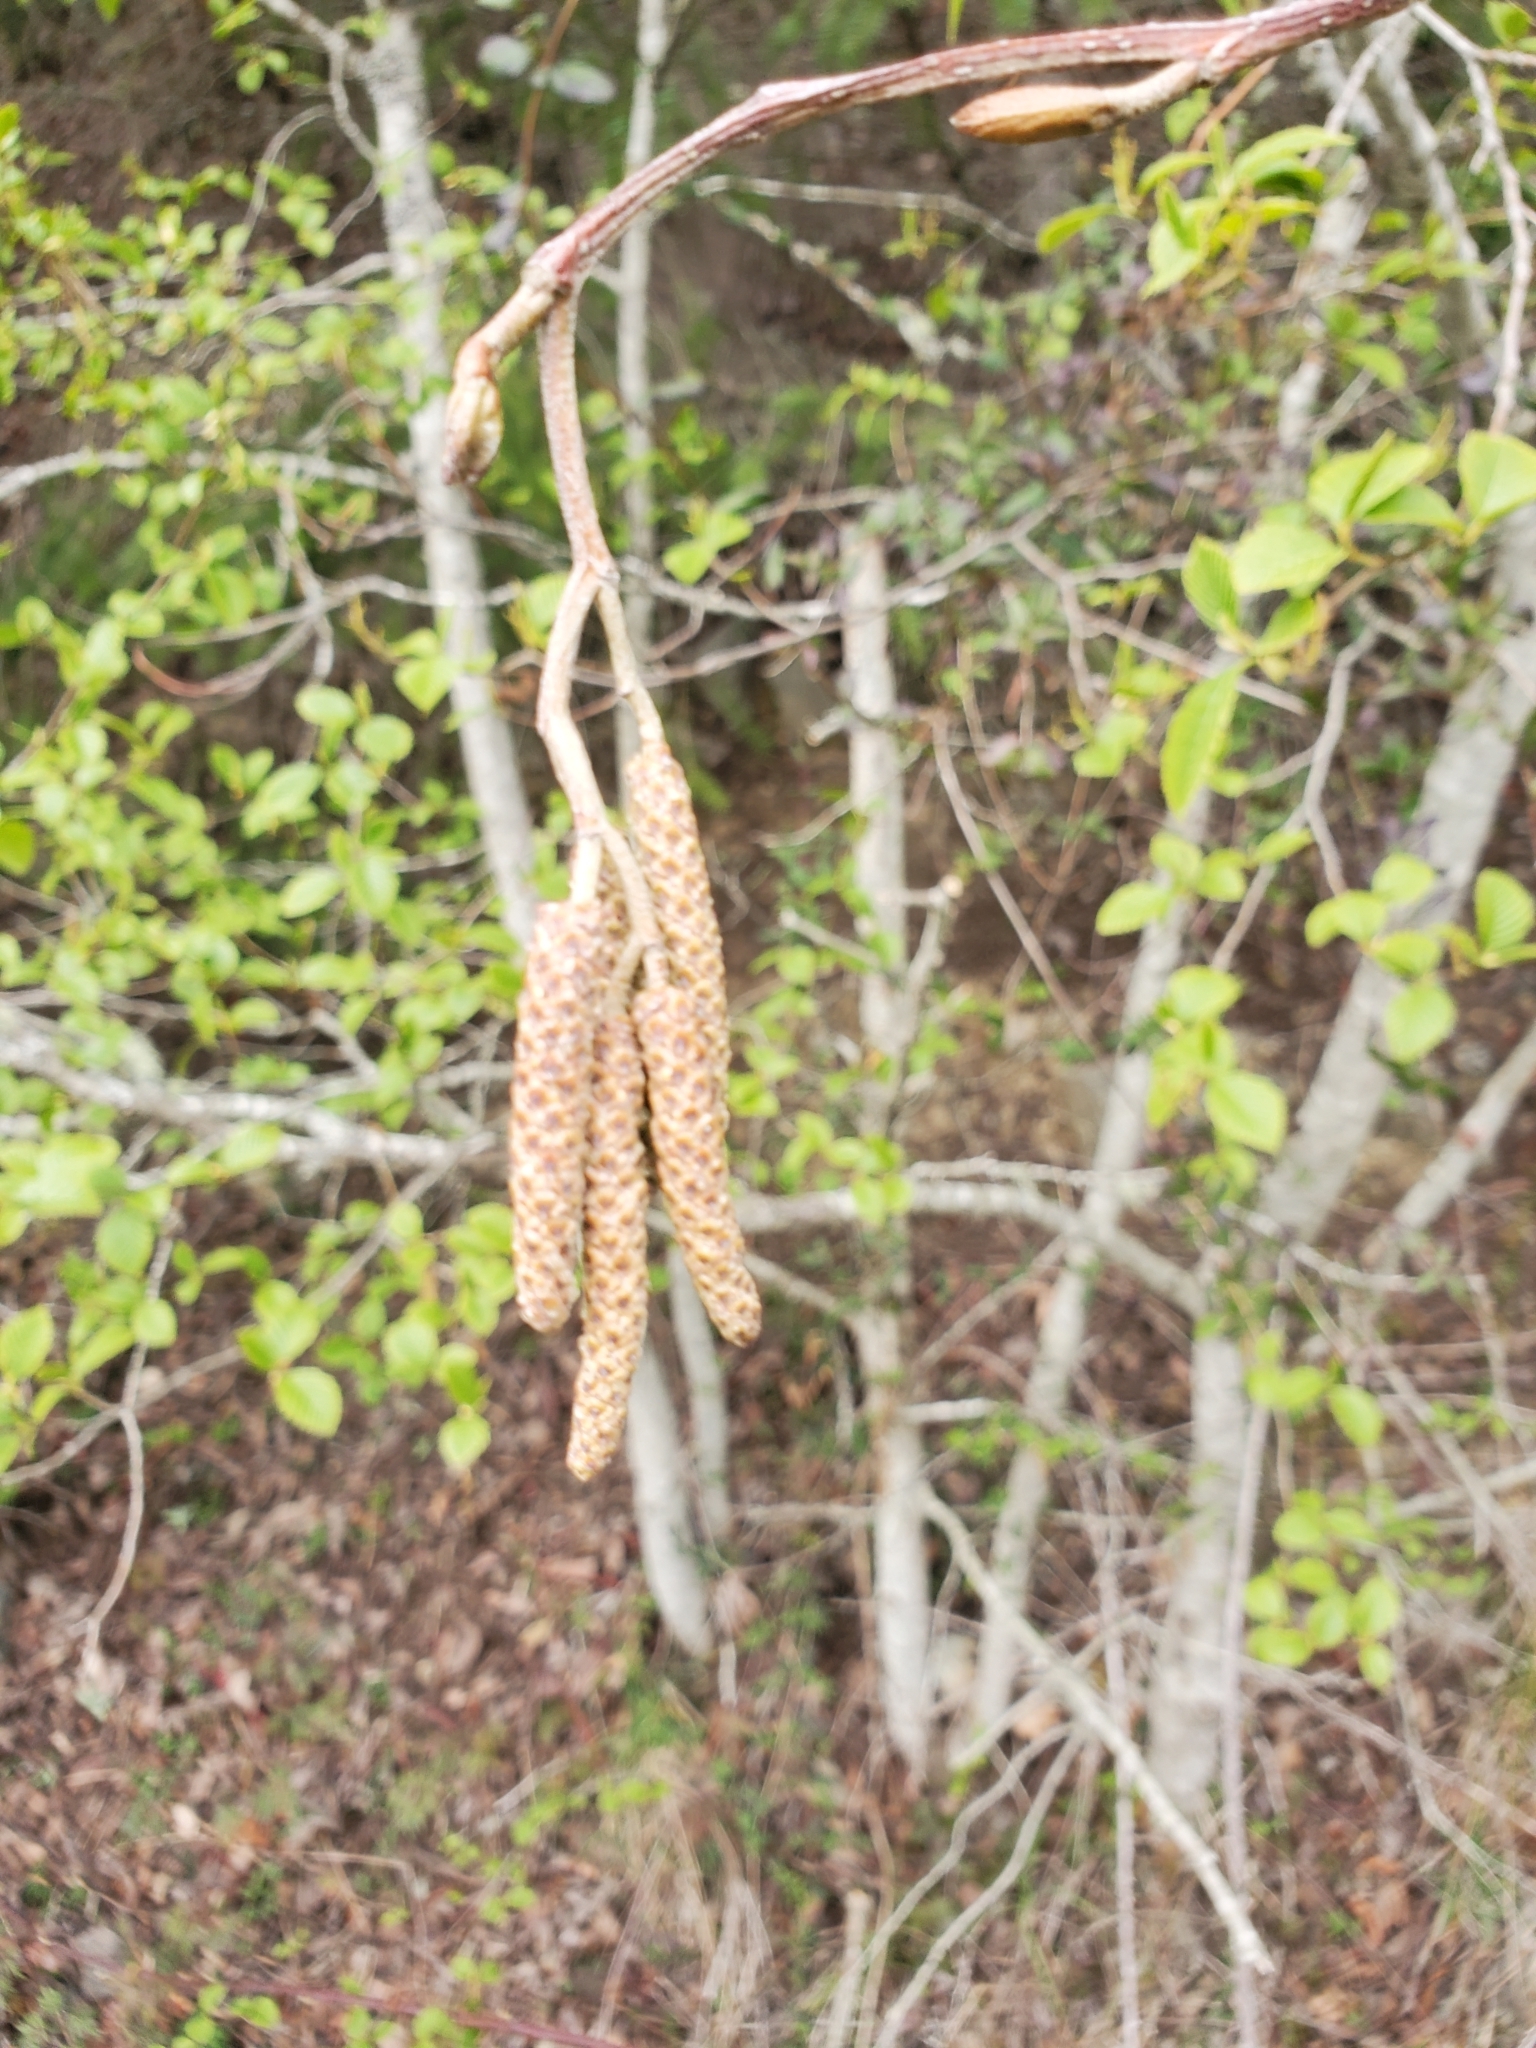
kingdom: Plantae
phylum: Tracheophyta
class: Magnoliopsida
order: Fagales
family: Betulaceae
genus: Alnus
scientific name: Alnus rubra
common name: Red alder
